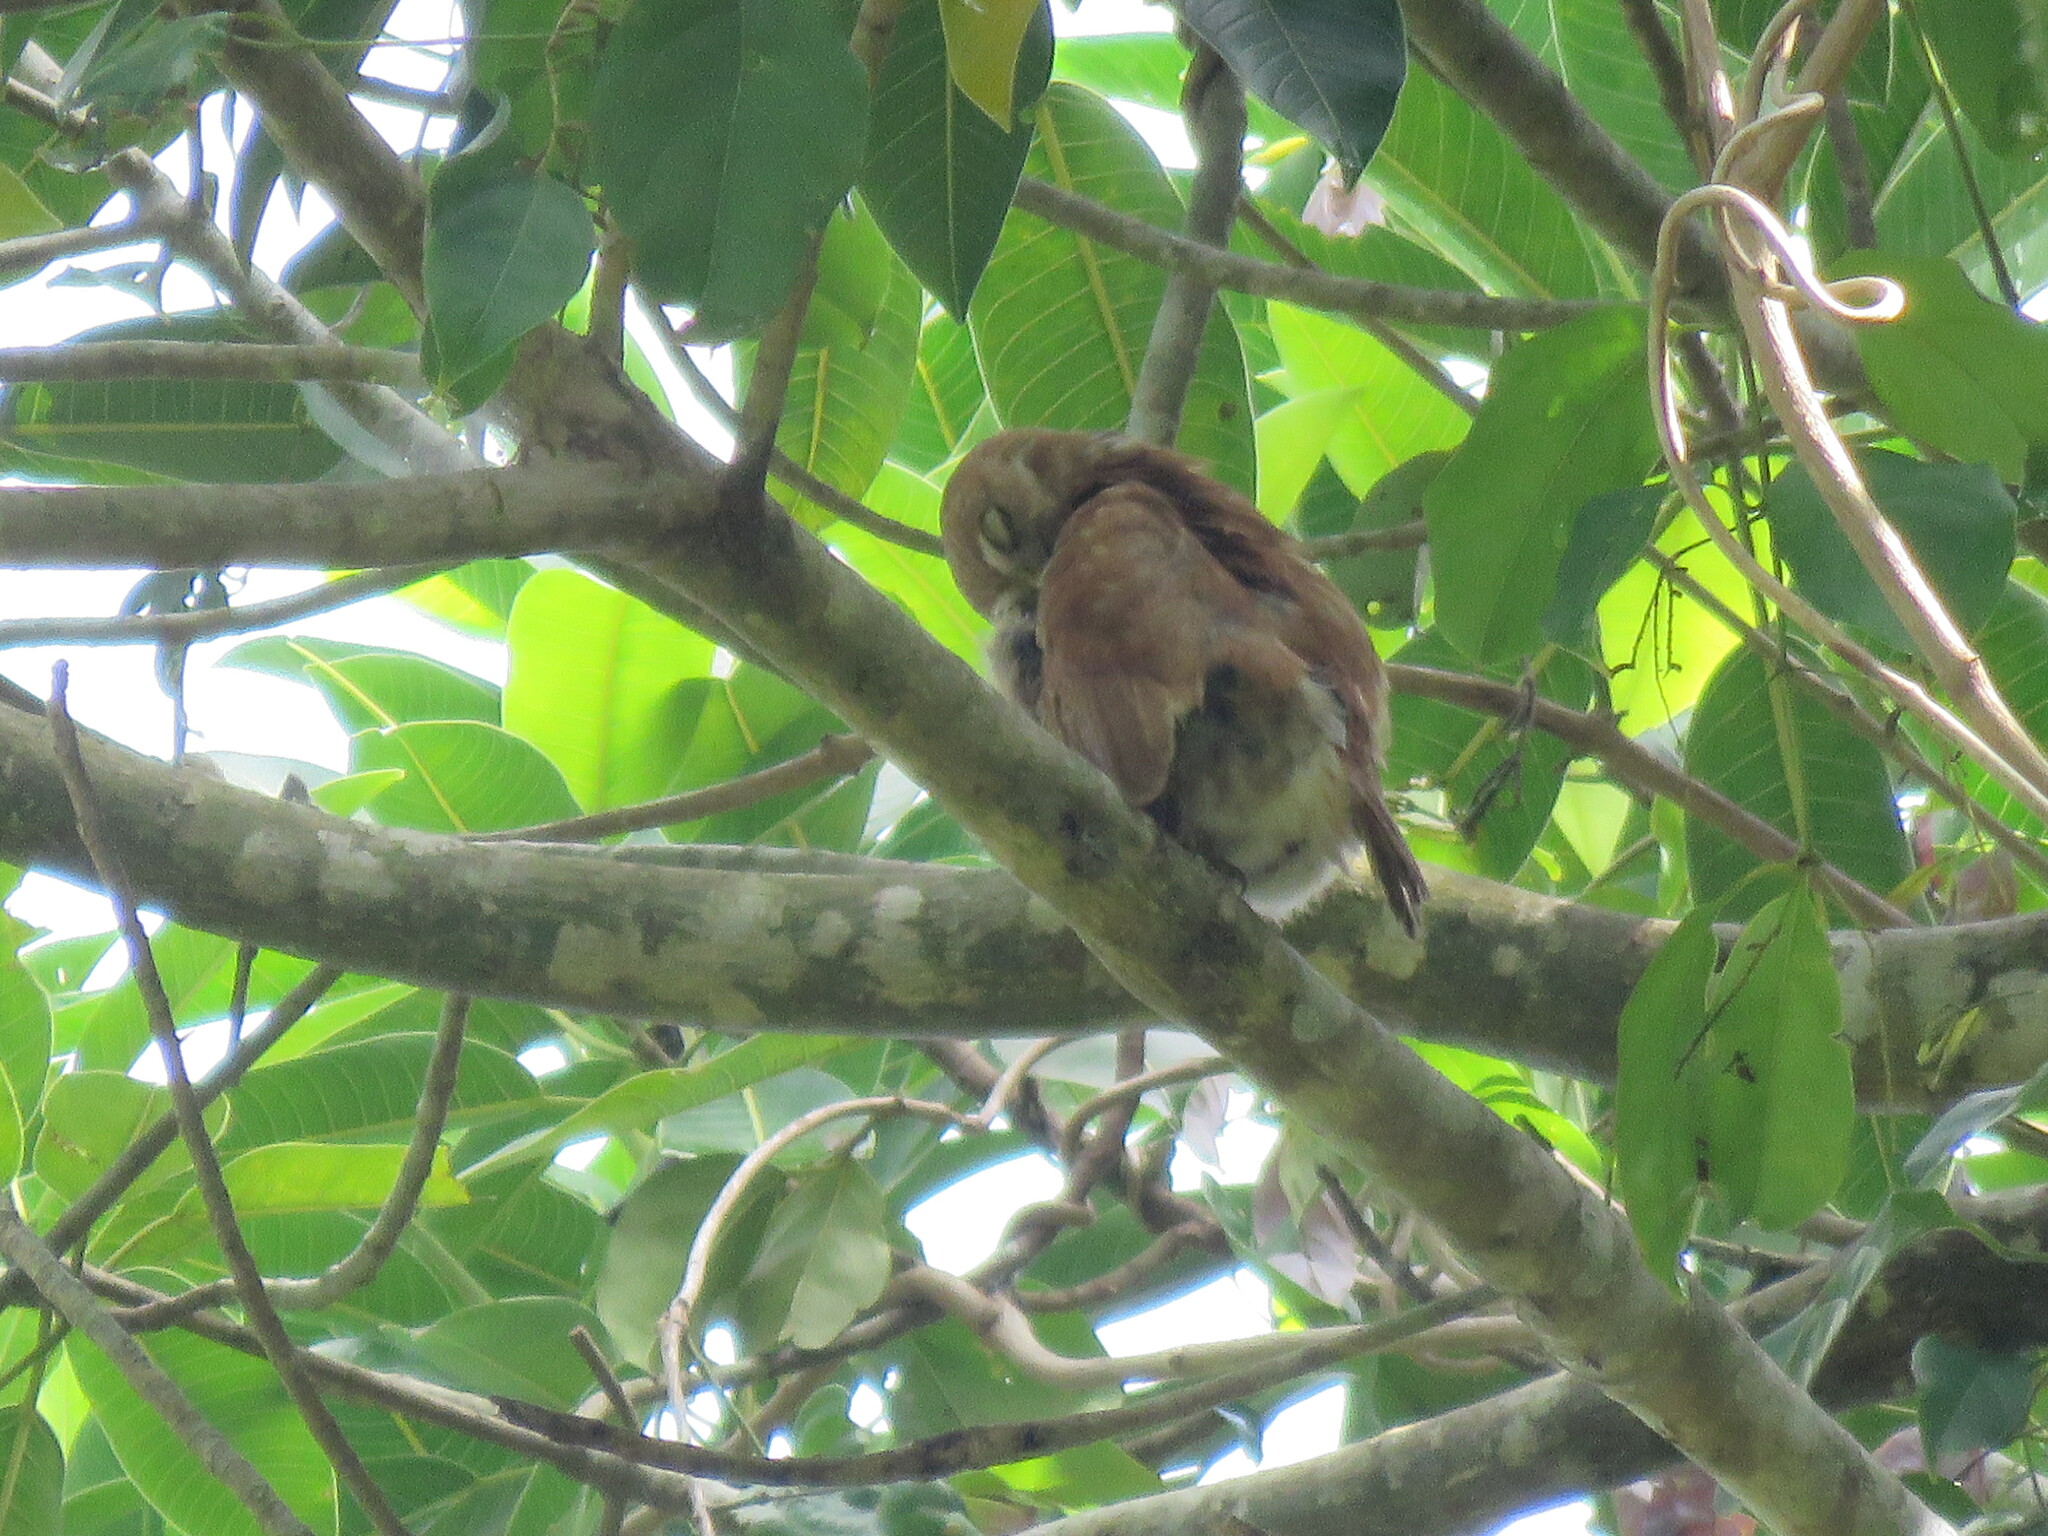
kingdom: Animalia
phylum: Chordata
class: Aves
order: Strigiformes
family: Strigidae
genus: Glaucidium
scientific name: Glaucidium brasilianum
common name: Ferruginous pygmy-owl
